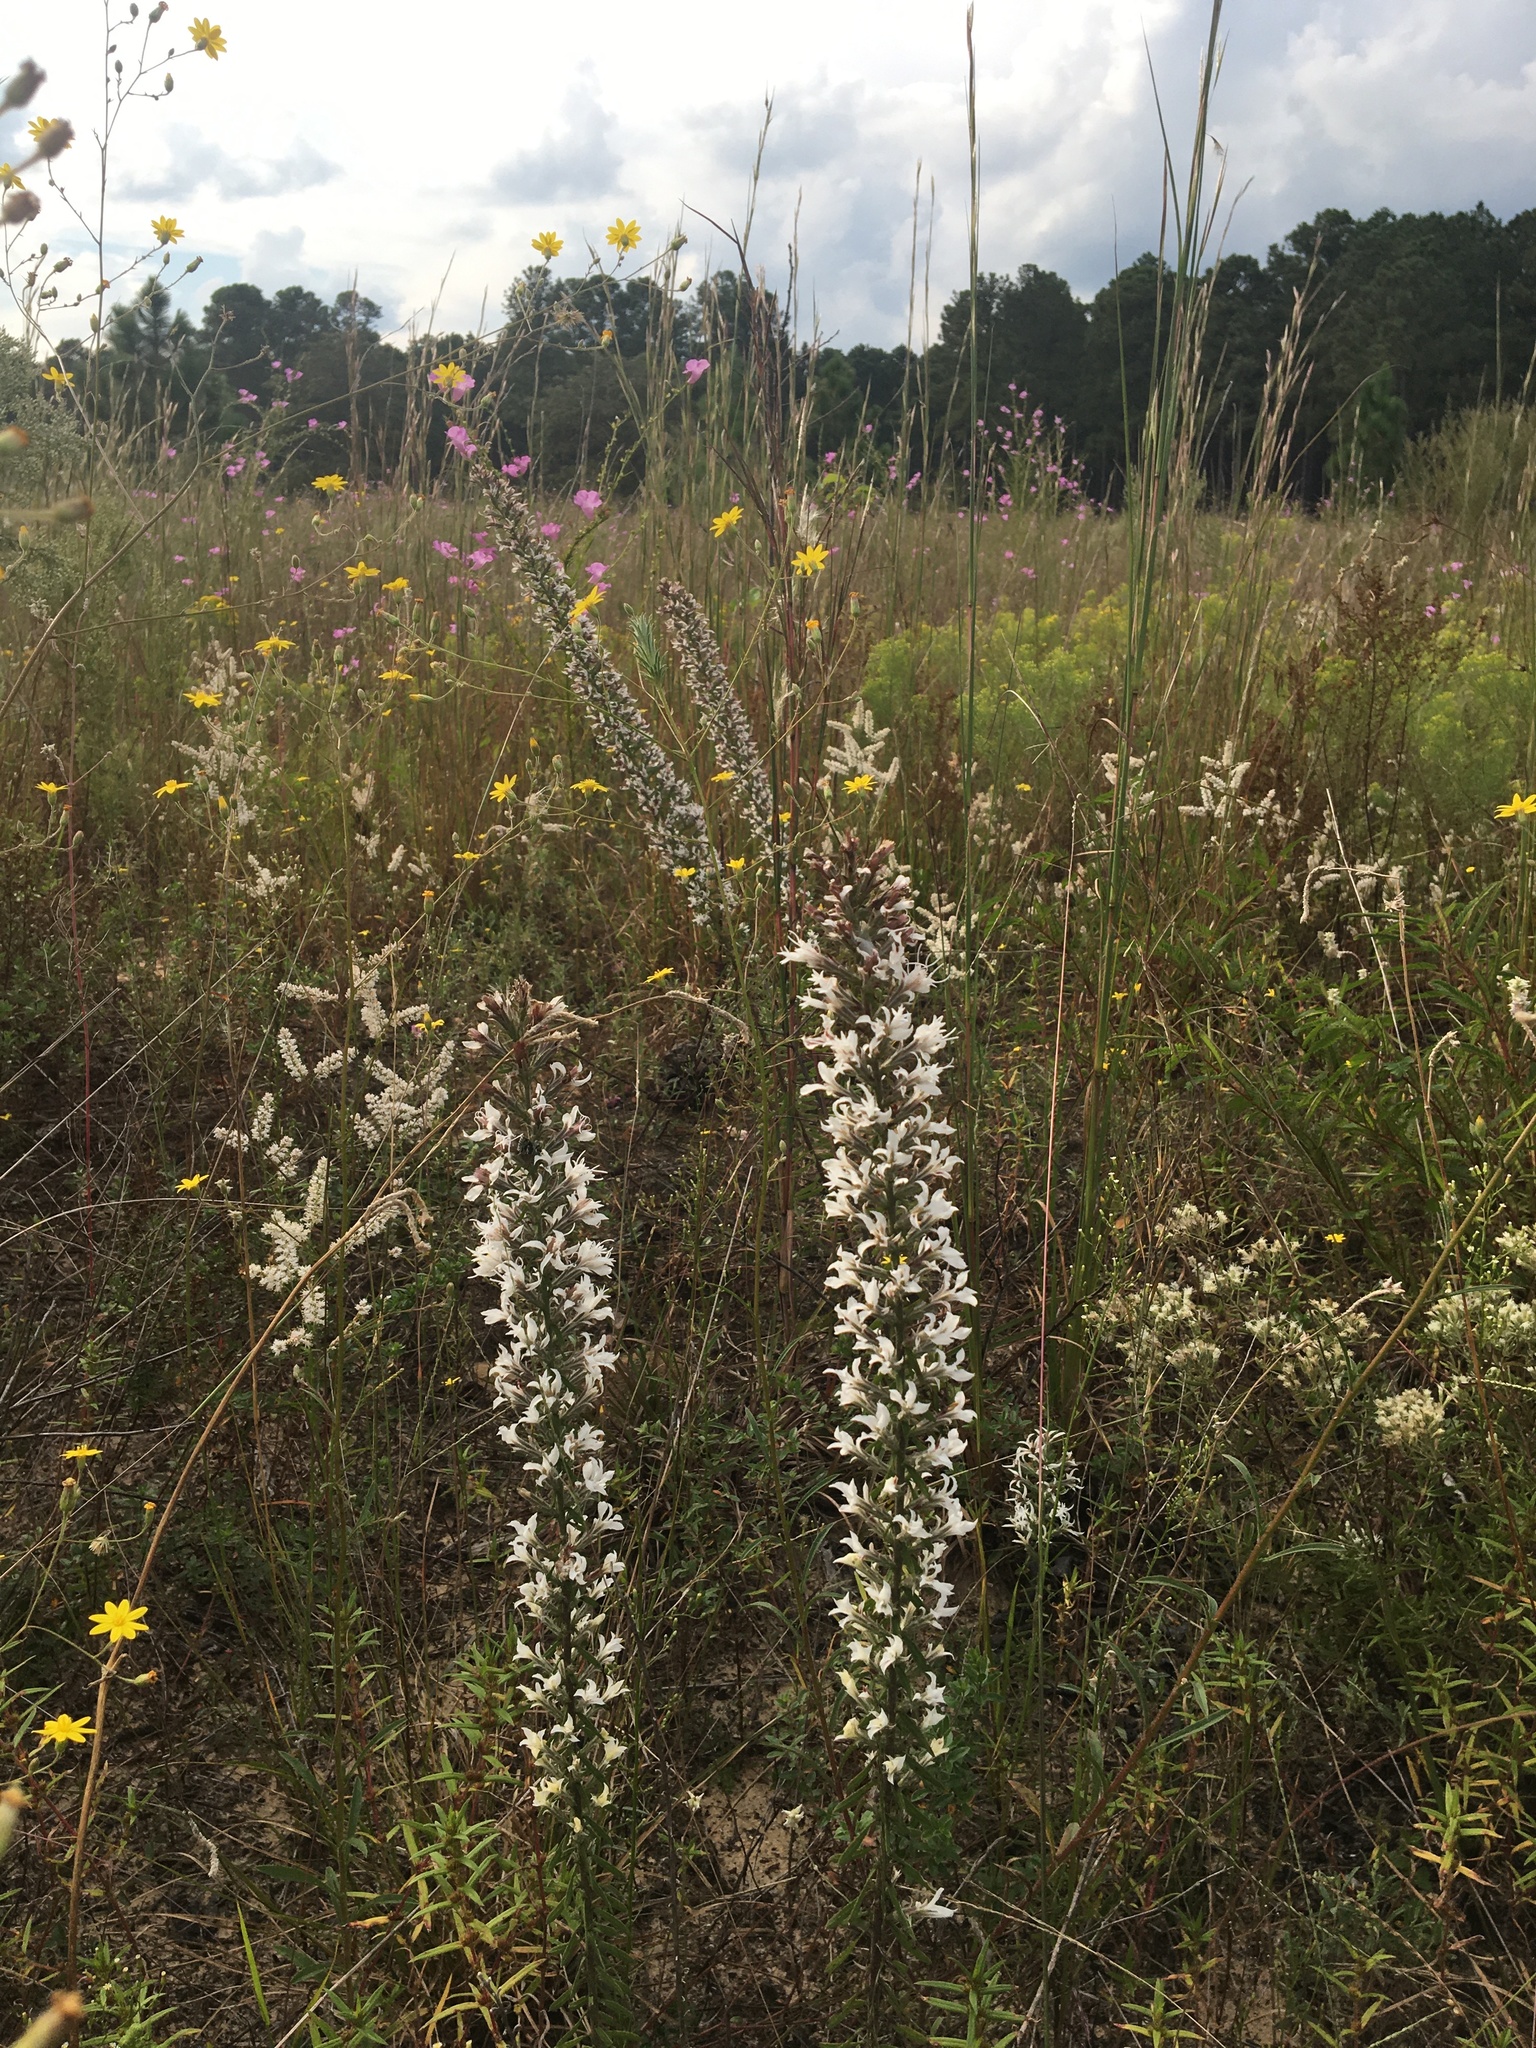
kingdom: Plantae
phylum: Tracheophyta
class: Magnoliopsida
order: Asterales
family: Asteraceae
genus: Liatris
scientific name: Liatris elegans
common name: Pinkscale gayfeather
